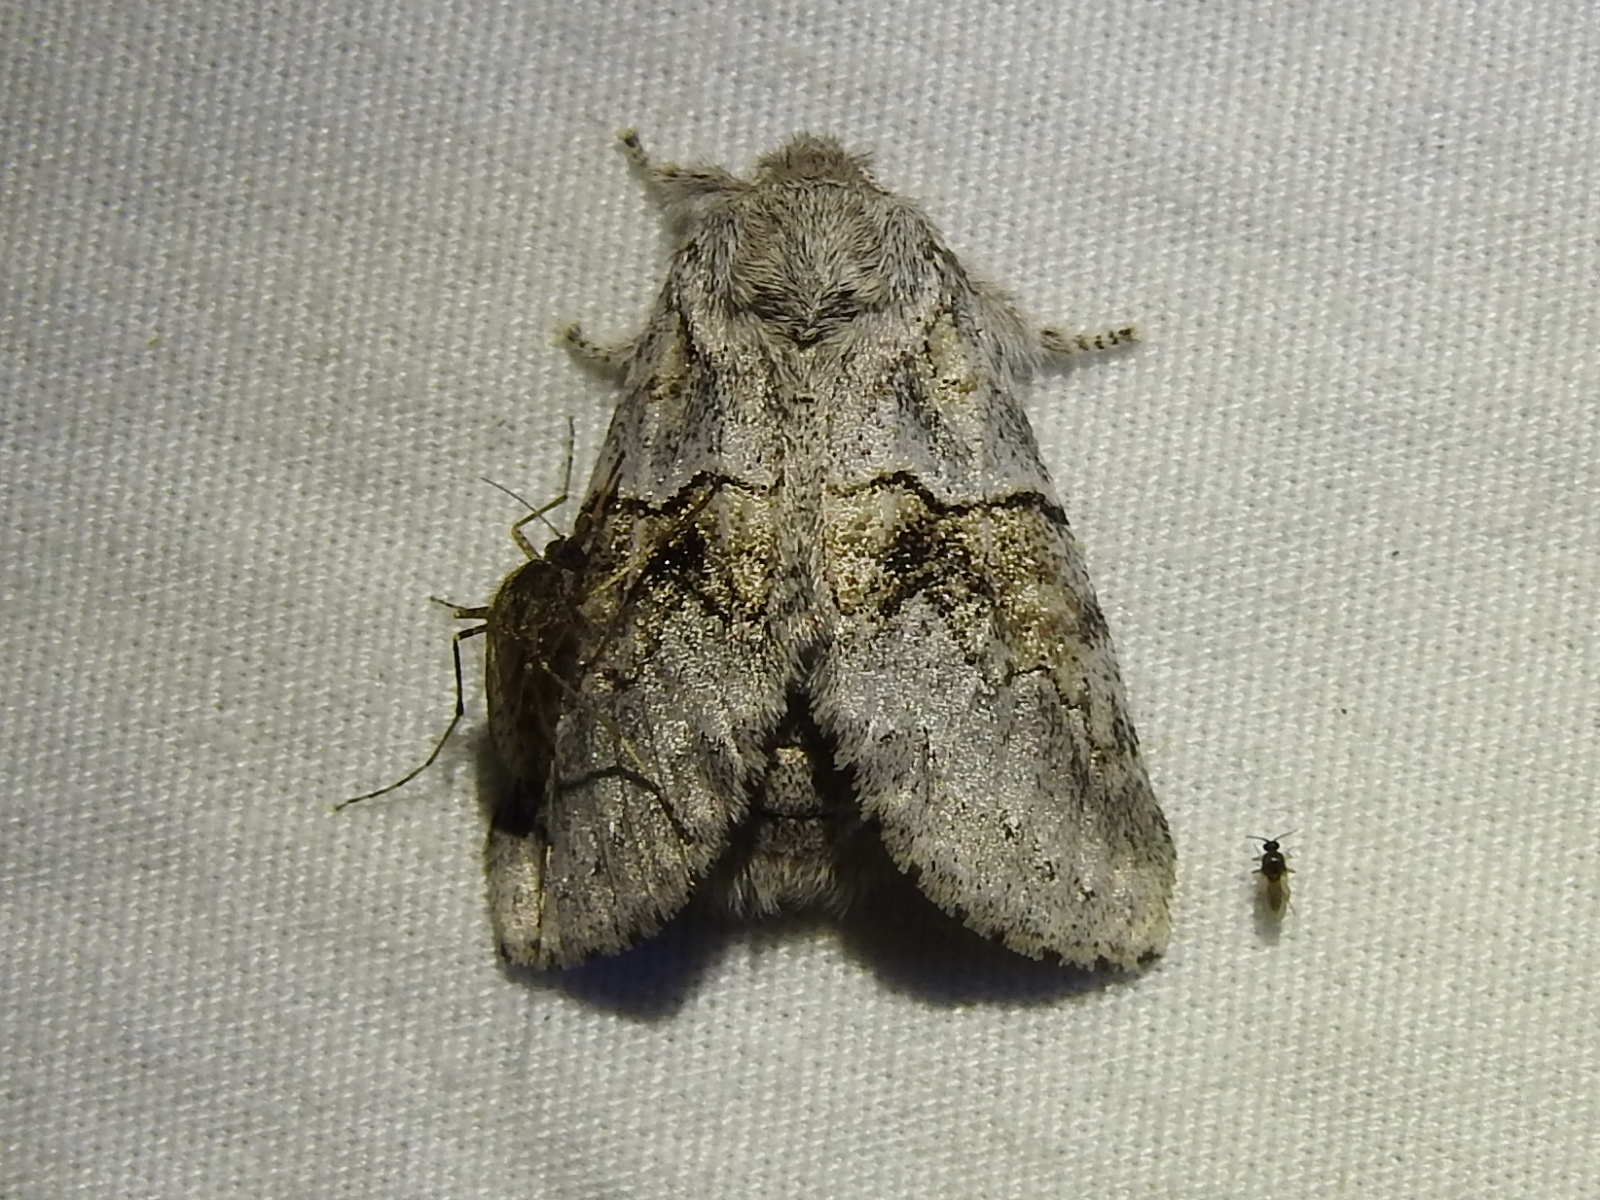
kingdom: Animalia
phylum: Arthropoda
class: Insecta
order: Lepidoptera
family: Notodontidae
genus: Gluphisia
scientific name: Gluphisia septentrionis
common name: Common gluphisia
